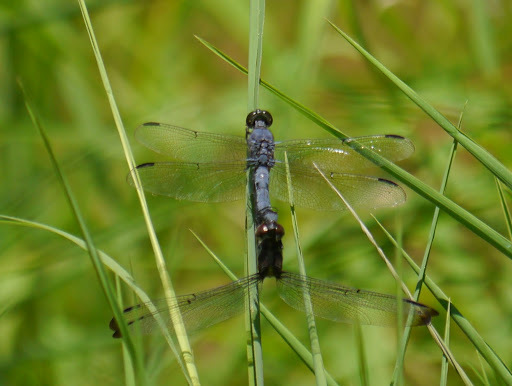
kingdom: Animalia
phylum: Arthropoda
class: Insecta
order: Odonata
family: Libellulidae
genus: Libellula
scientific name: Libellula incesta
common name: Slaty skimmer
